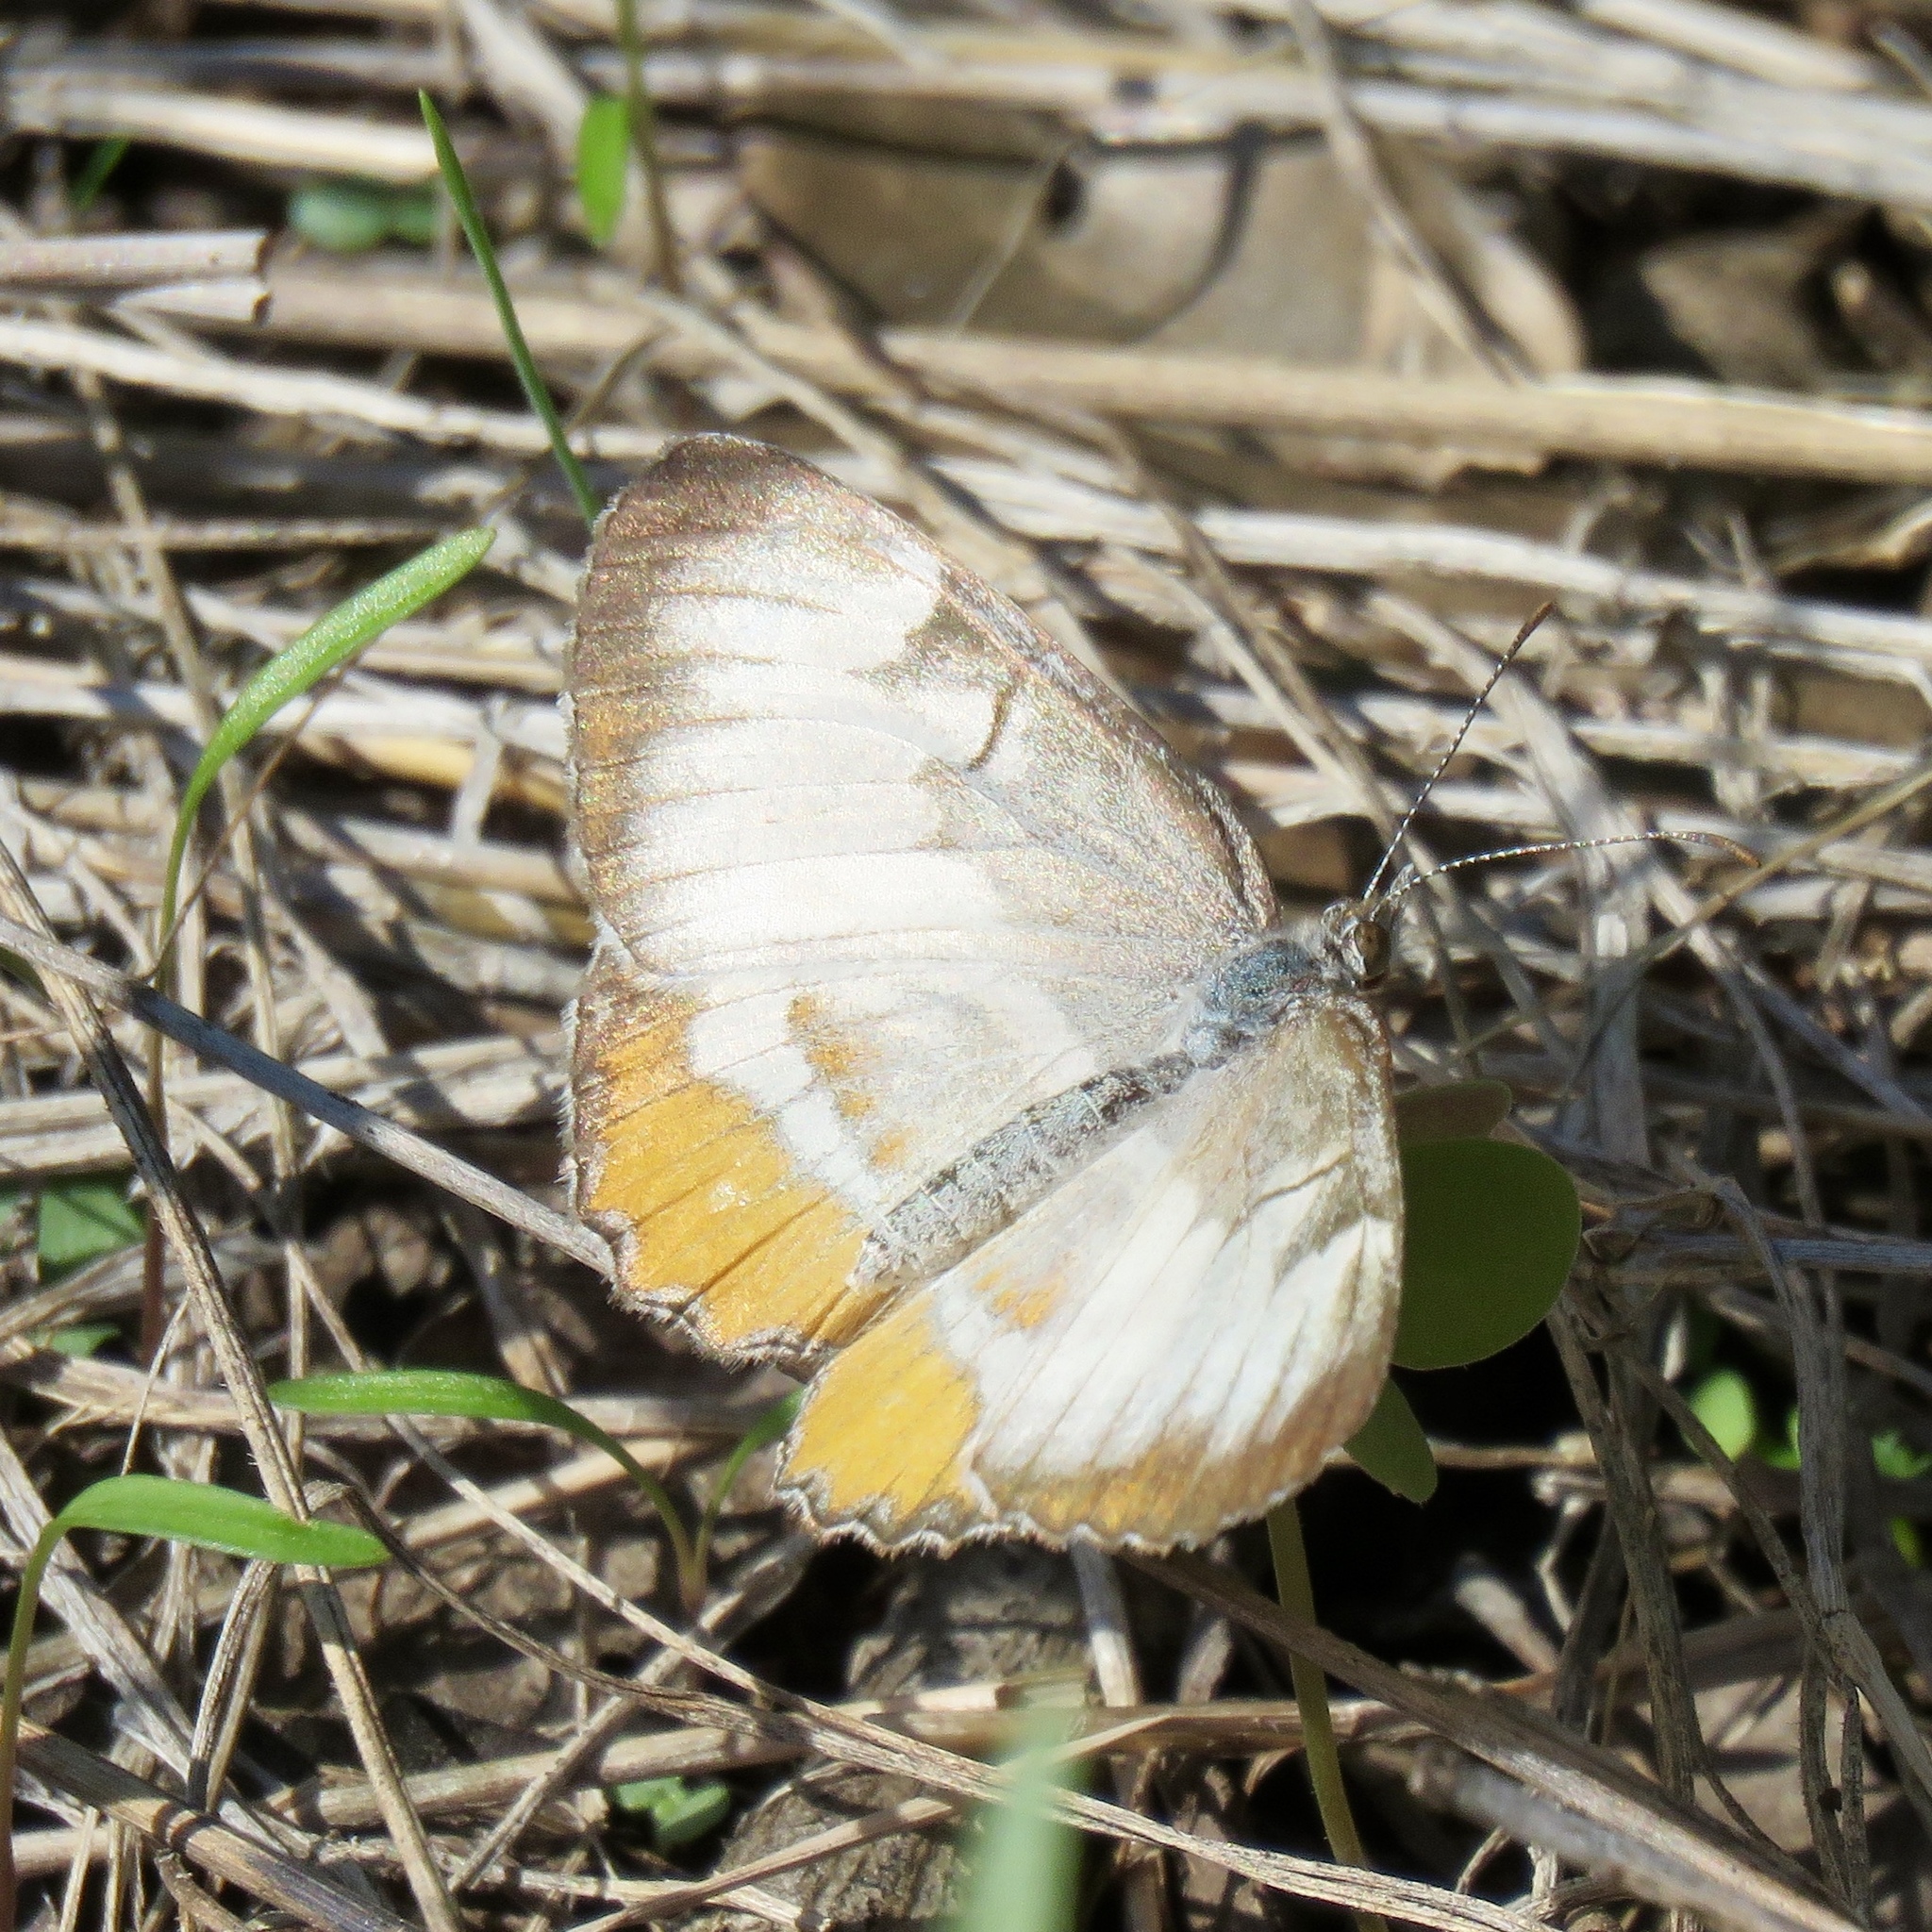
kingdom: Animalia
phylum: Arthropoda
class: Insecta
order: Lepidoptera
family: Nymphalidae
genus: Mestra
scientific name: Mestra amymone
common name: Common mestra
